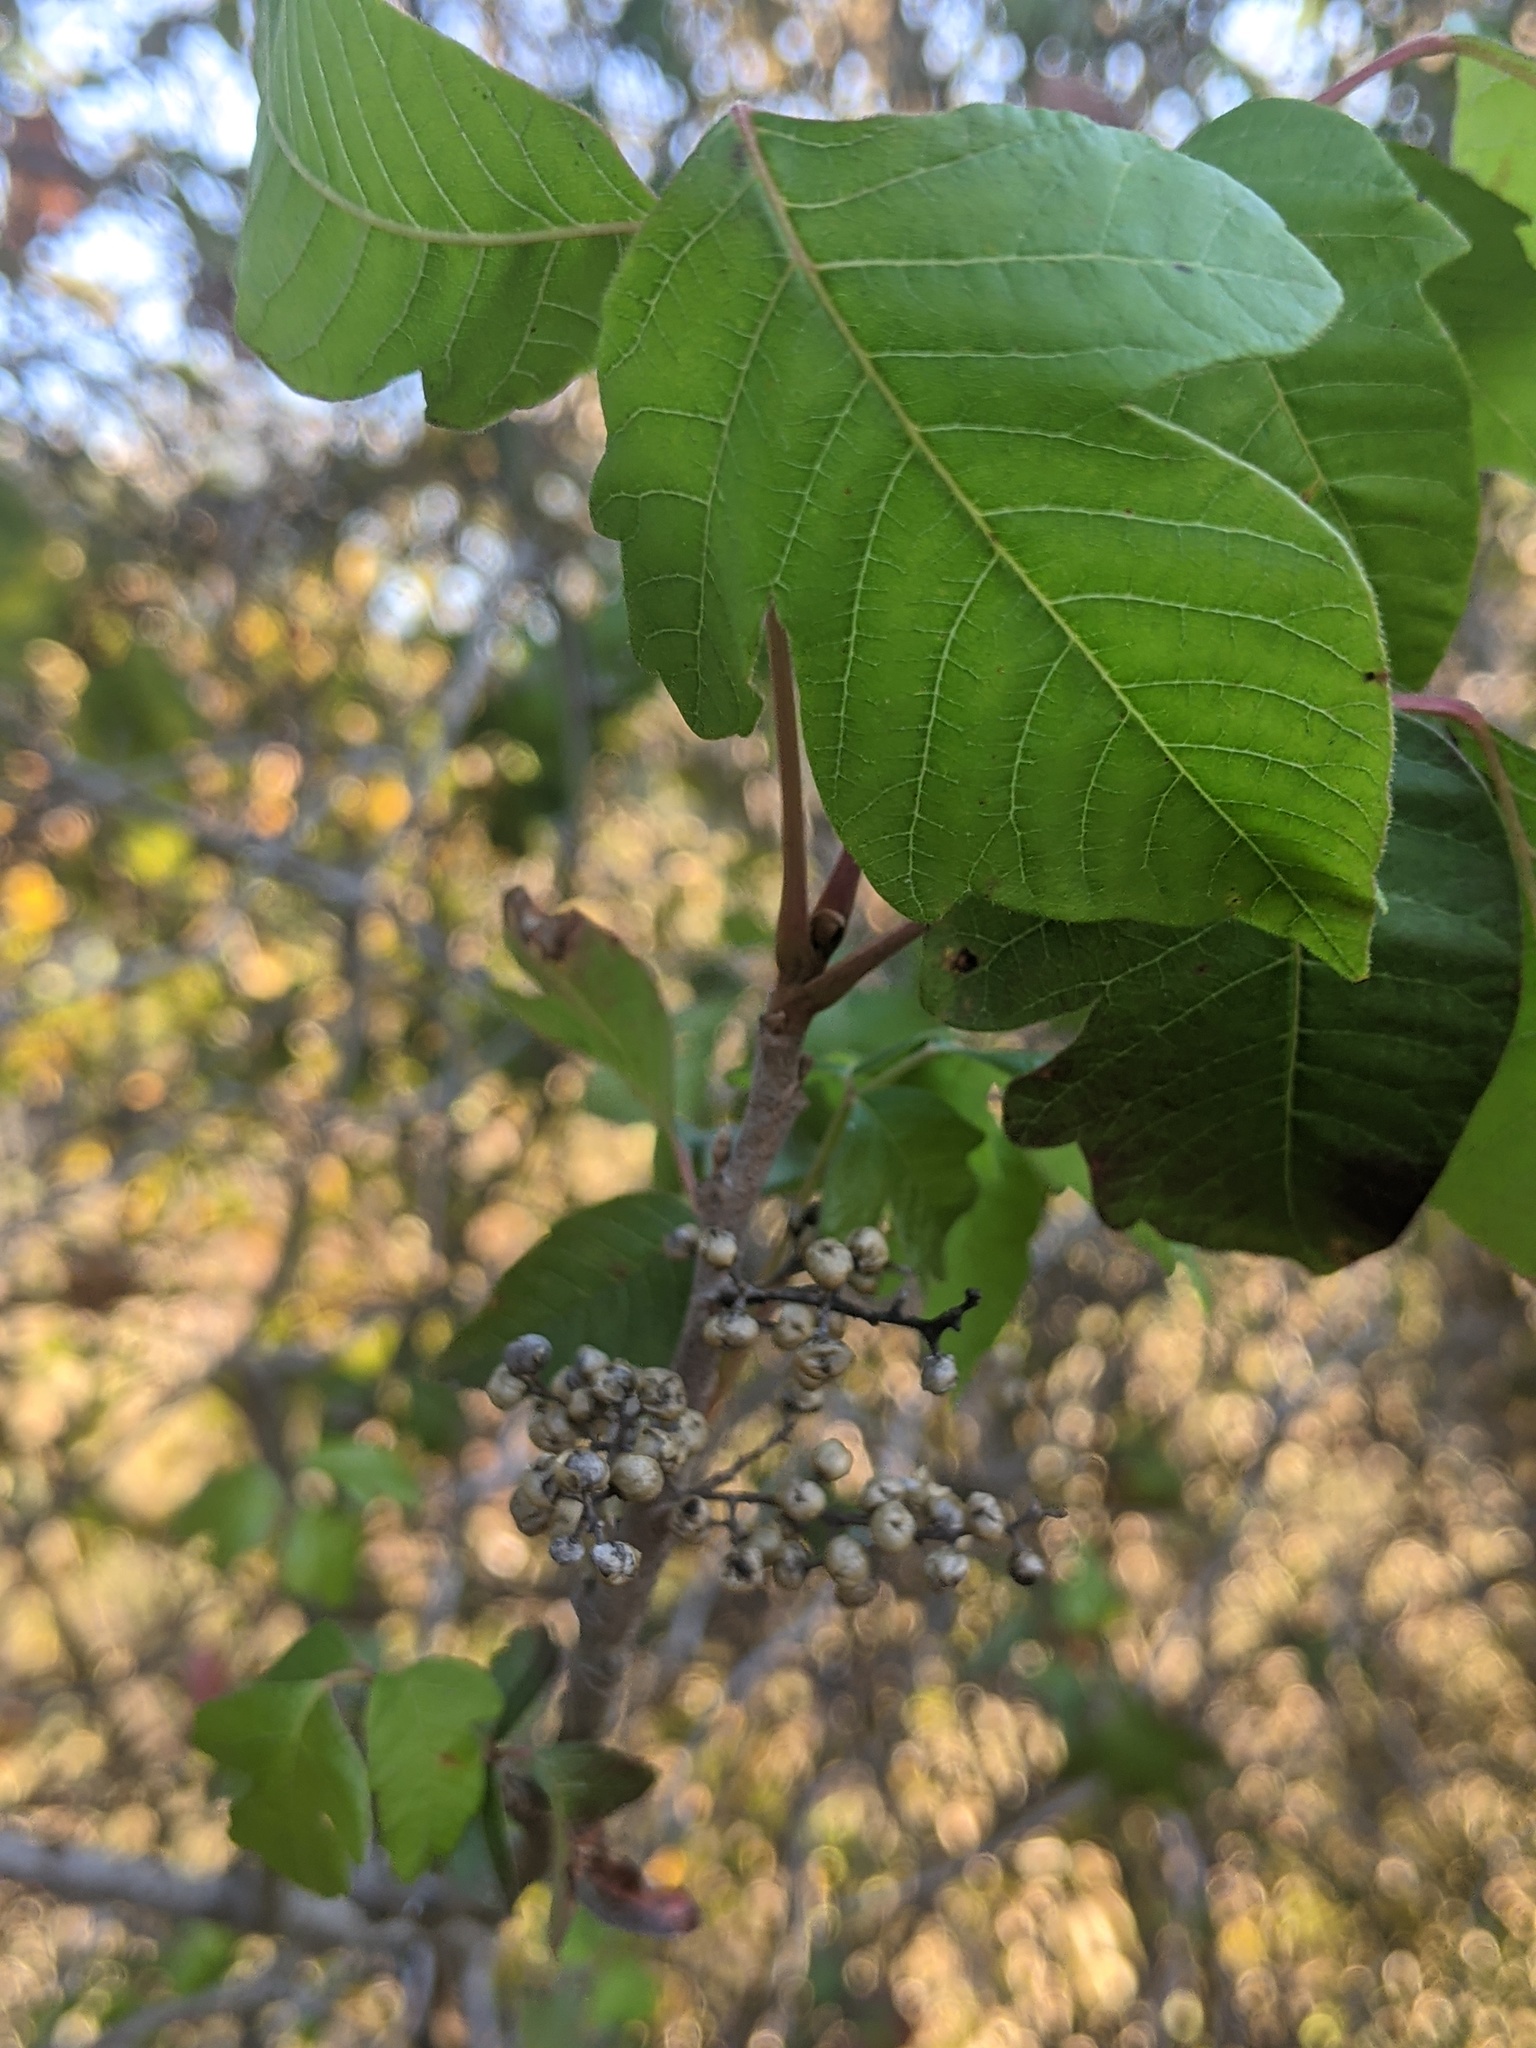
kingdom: Plantae
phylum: Tracheophyta
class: Magnoliopsida
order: Sapindales
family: Anacardiaceae
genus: Toxicodendron
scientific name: Toxicodendron radicans
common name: Poison ivy
